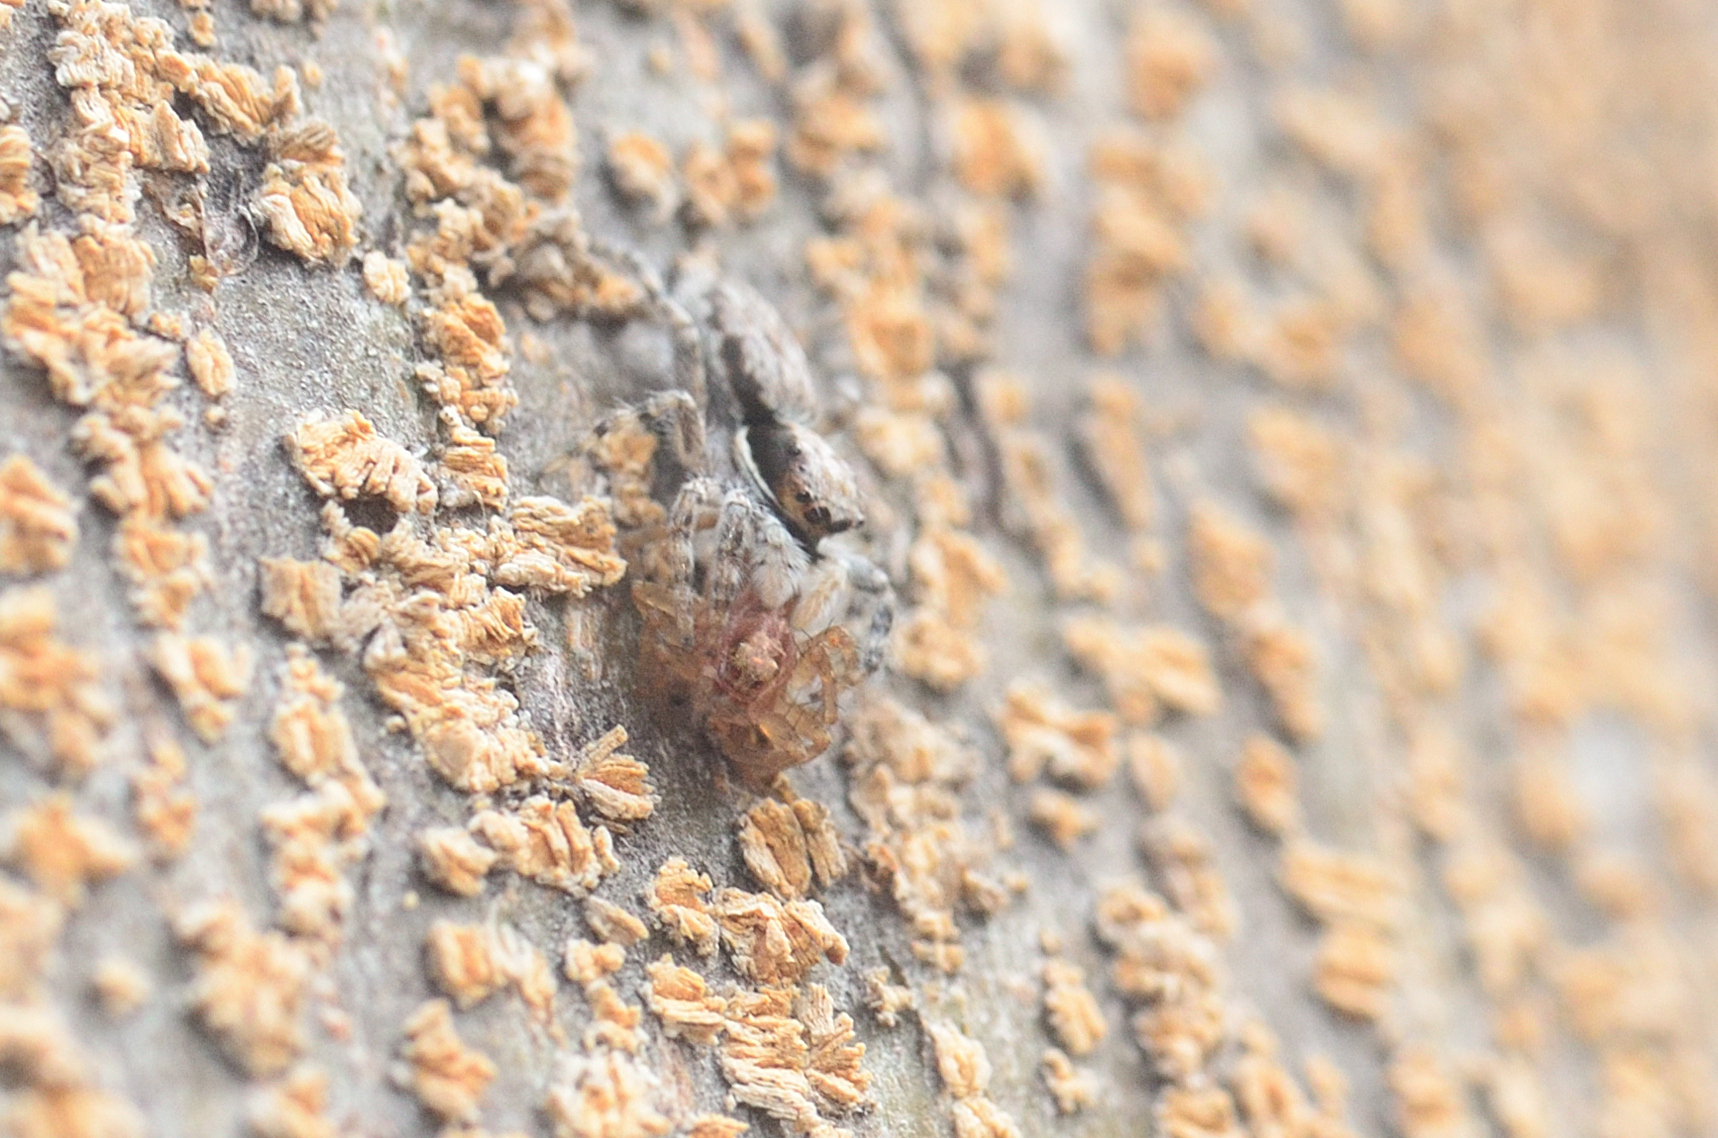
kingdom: Animalia
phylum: Arthropoda
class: Arachnida
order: Araneae
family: Salticidae
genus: Menemerus
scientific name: Menemerus bivittatus
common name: Gray wall jumper
